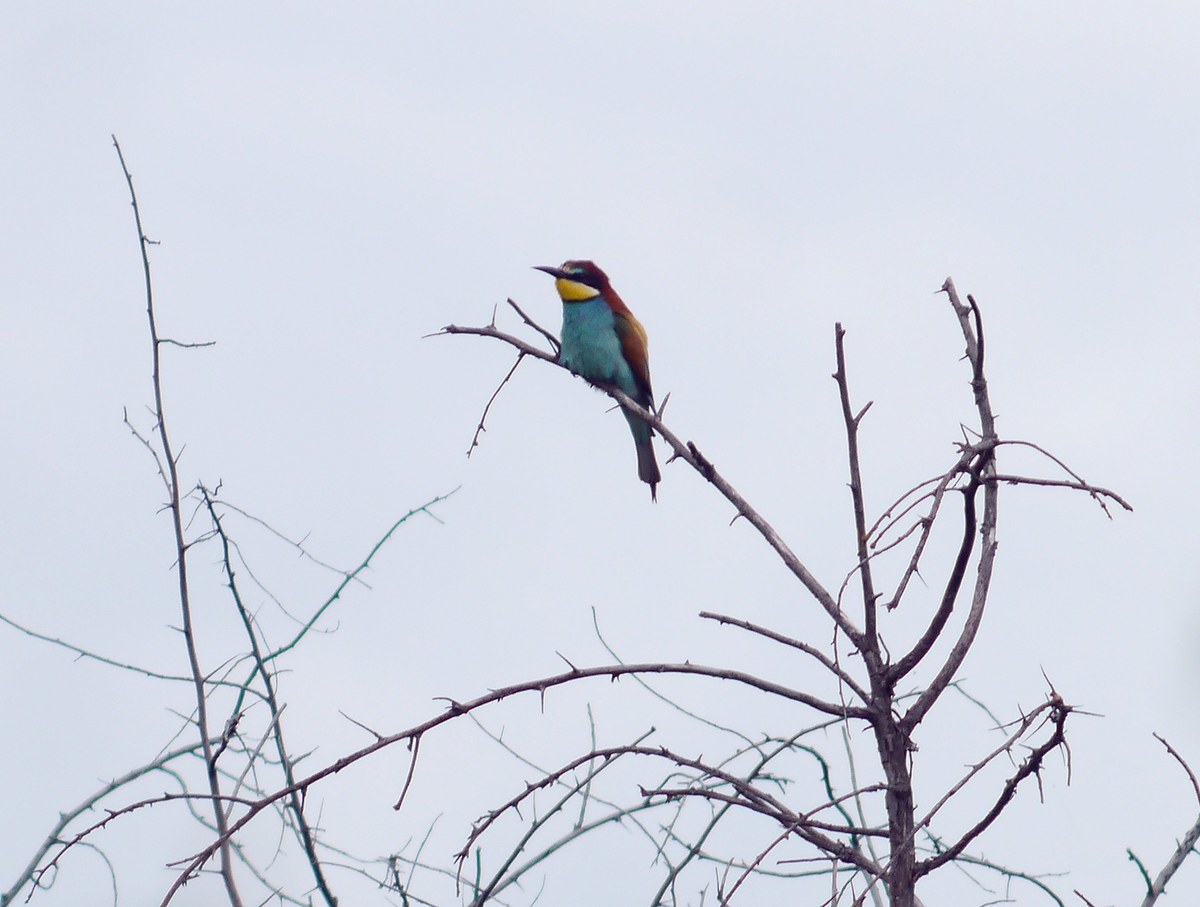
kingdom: Animalia
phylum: Chordata
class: Aves
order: Coraciiformes
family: Meropidae
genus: Merops
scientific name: Merops apiaster
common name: European bee-eater
